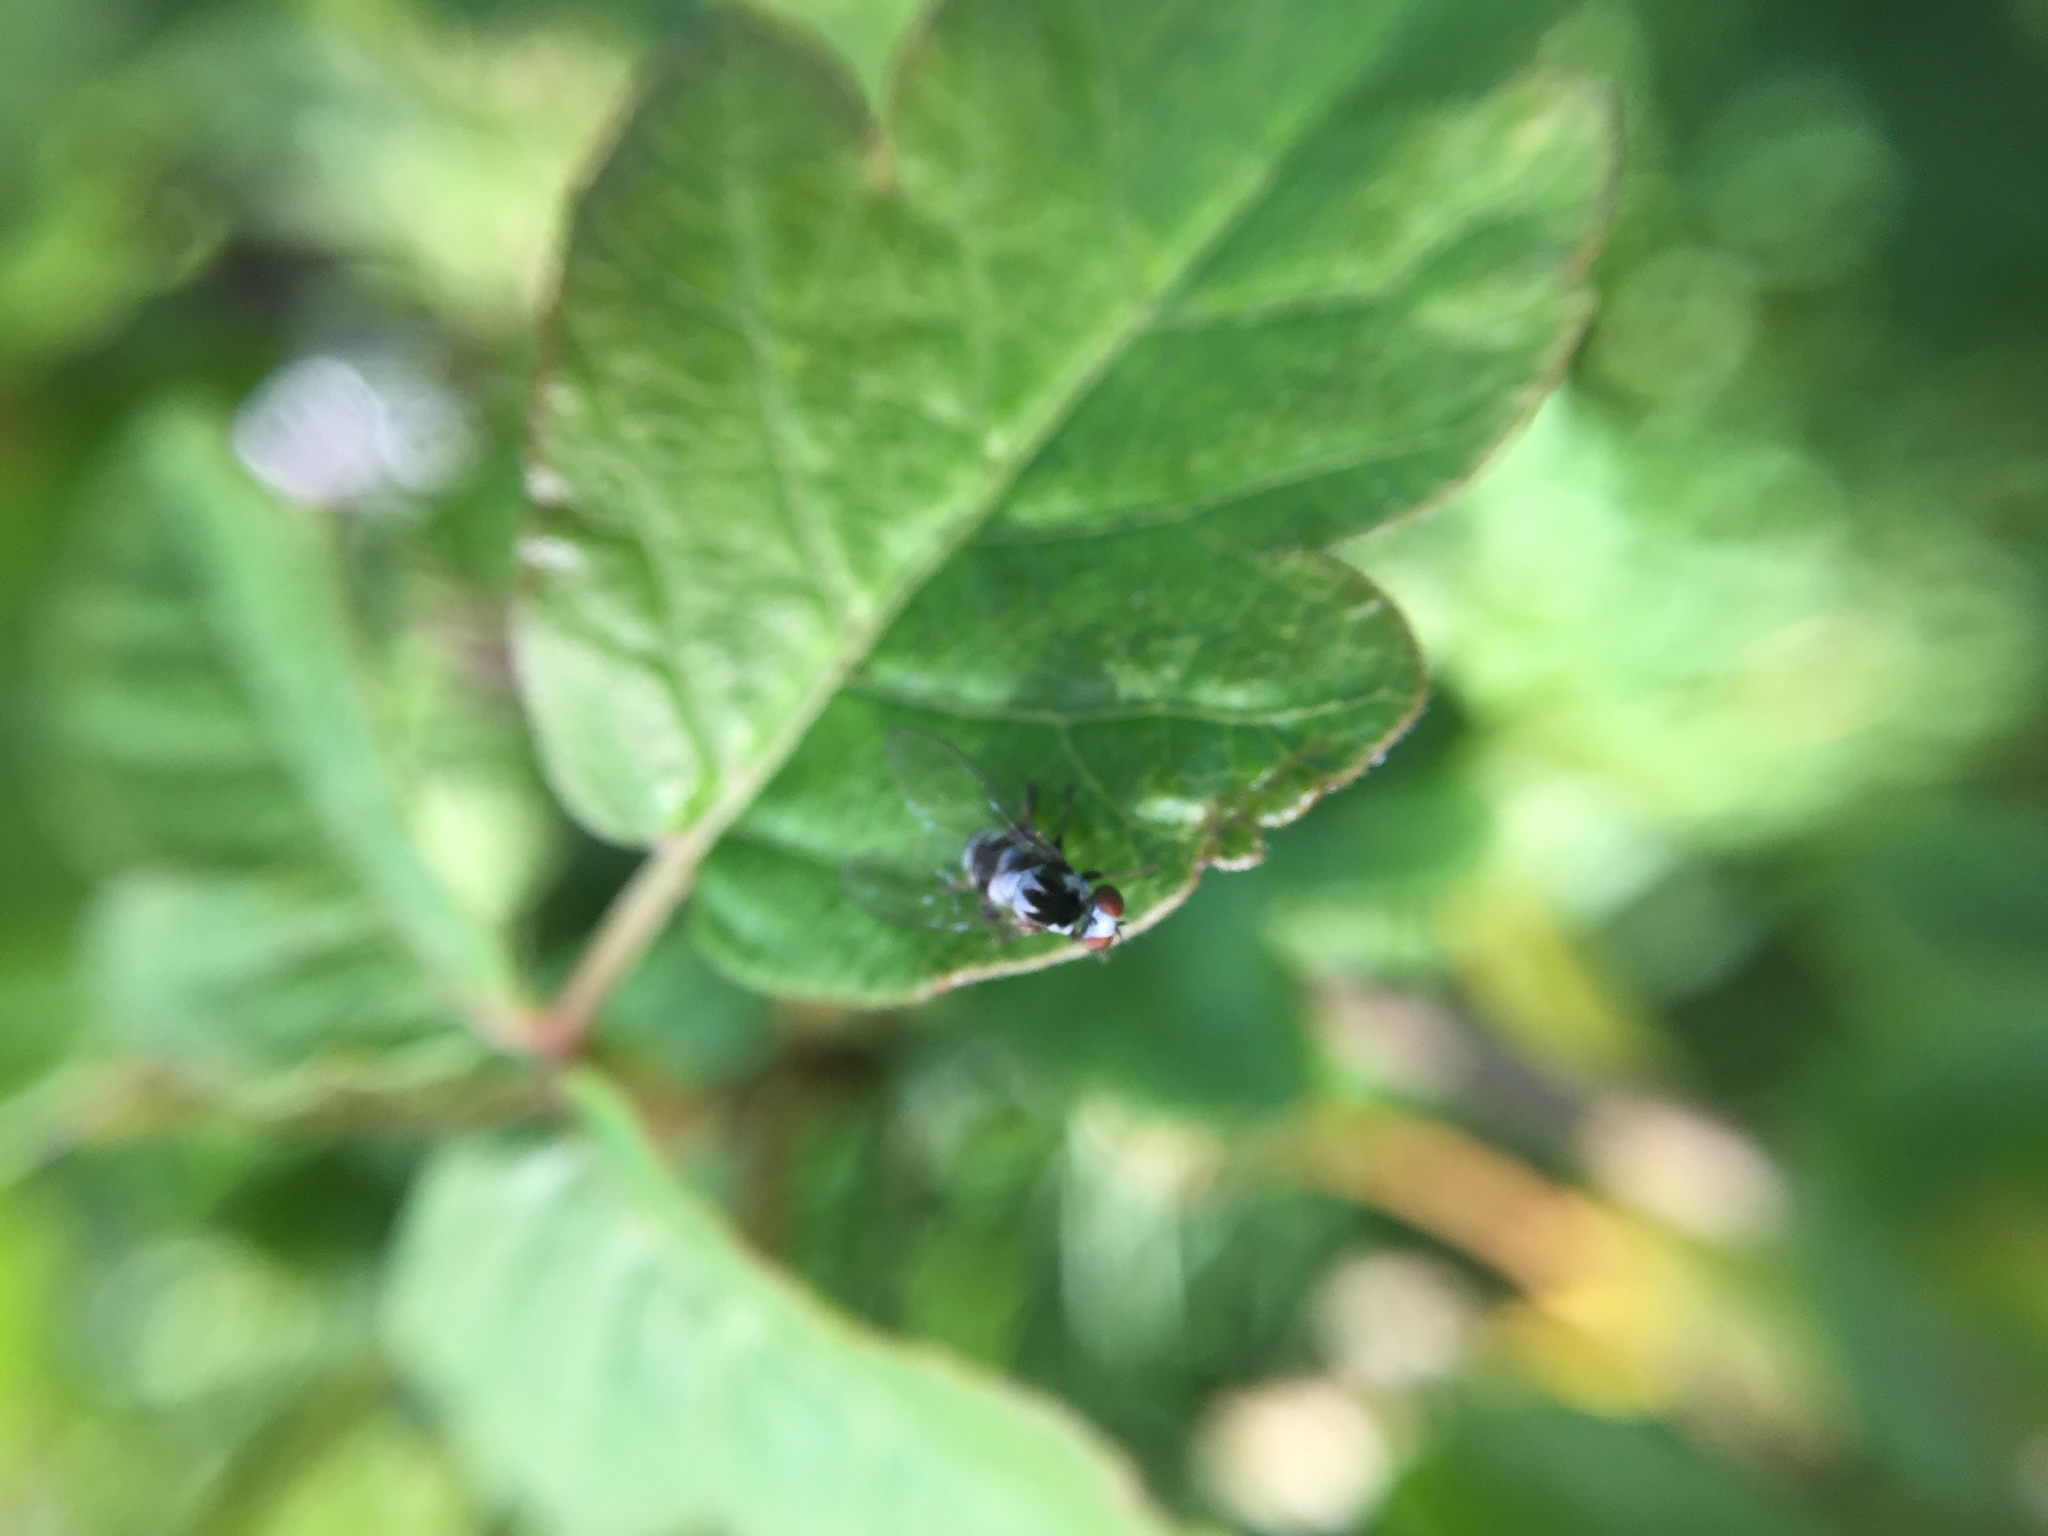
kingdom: Animalia
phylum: Arthropoda
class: Insecta
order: Diptera
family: Platypezidae
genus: Polyporivora
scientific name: Polyporivora polypori
